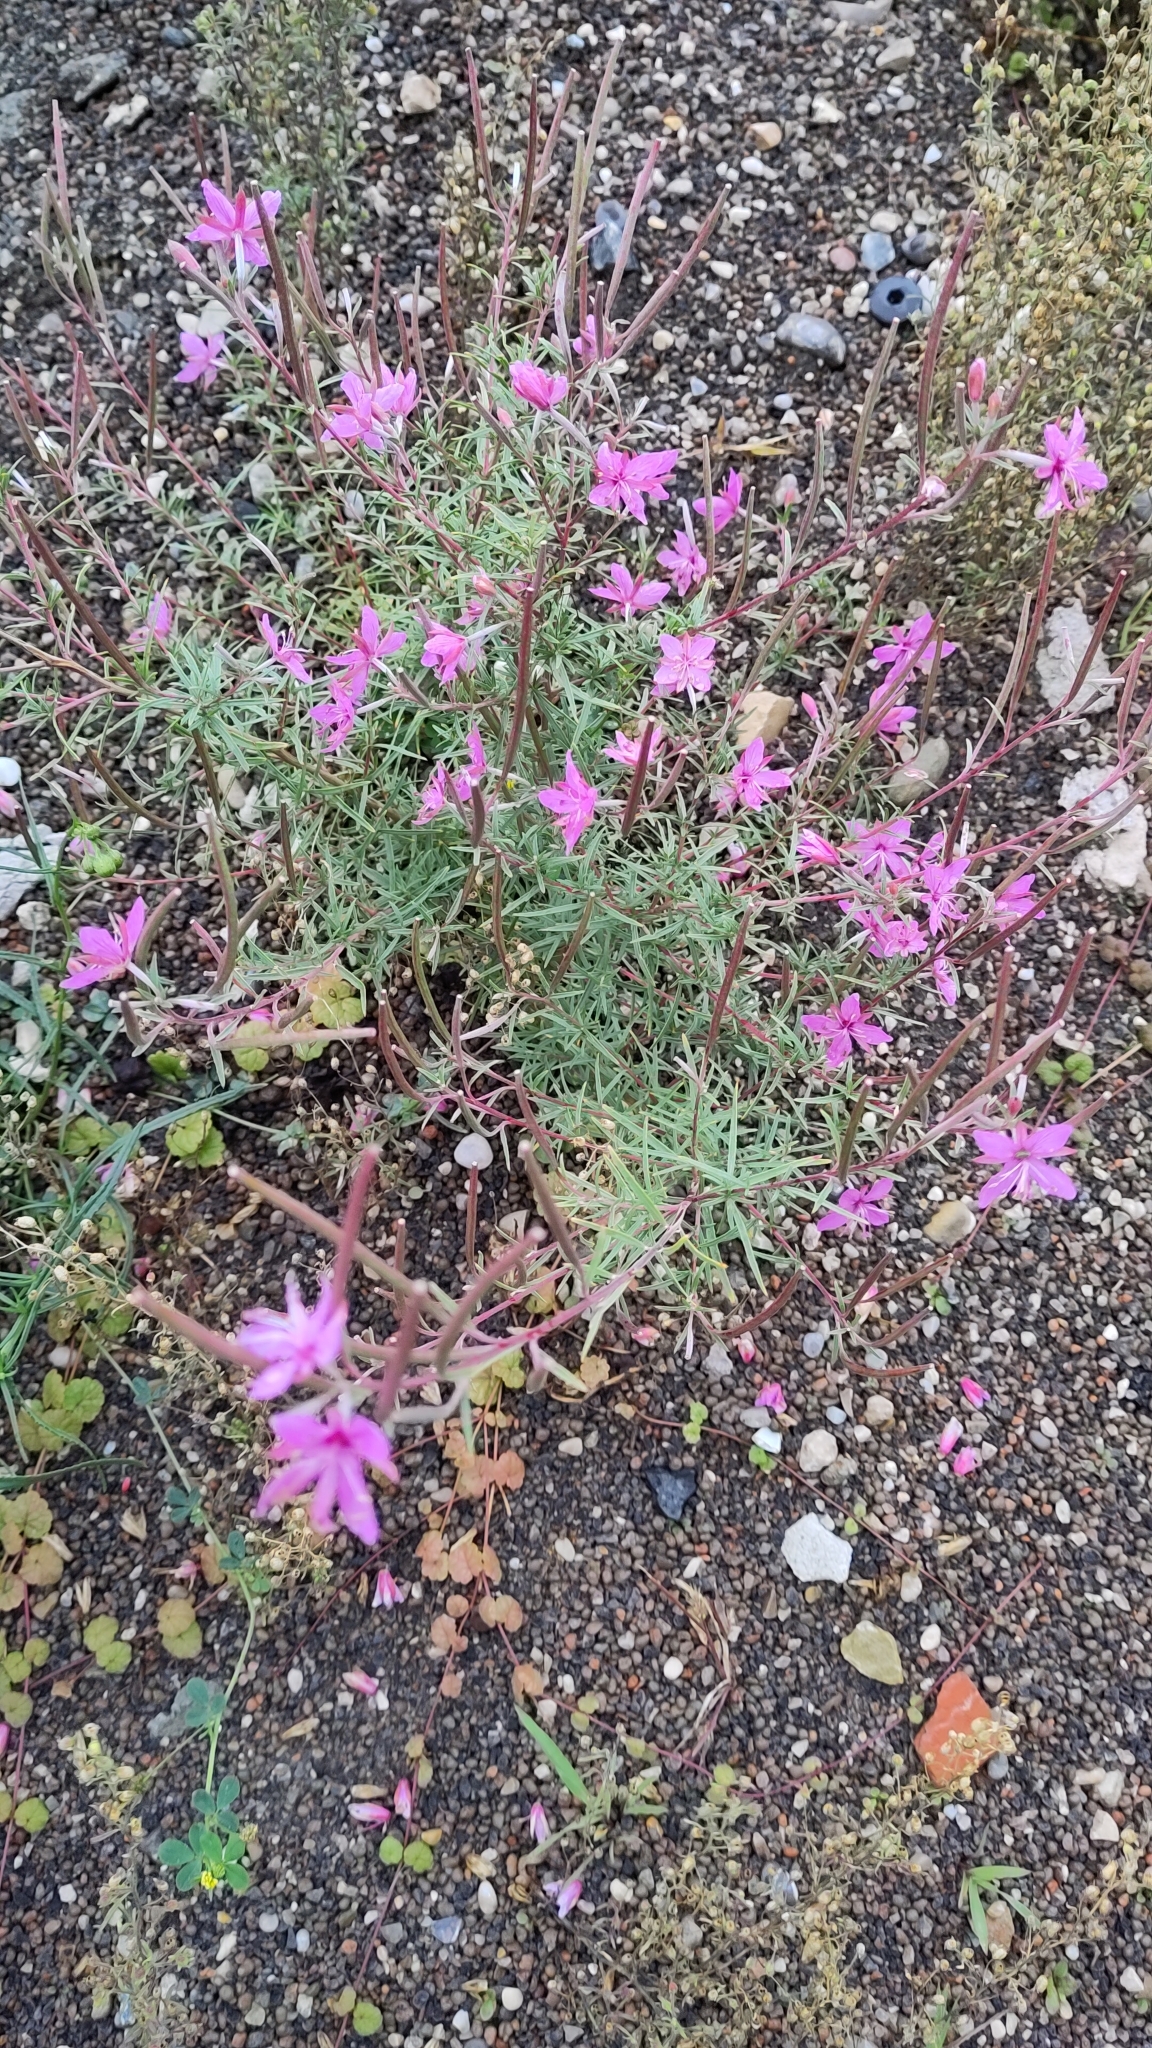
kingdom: Plantae
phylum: Tracheophyta
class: Magnoliopsida
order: Myrtales
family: Onagraceae
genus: Chamaenerion
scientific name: Chamaenerion dodonaei
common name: Rosemary-leaved willowherb
